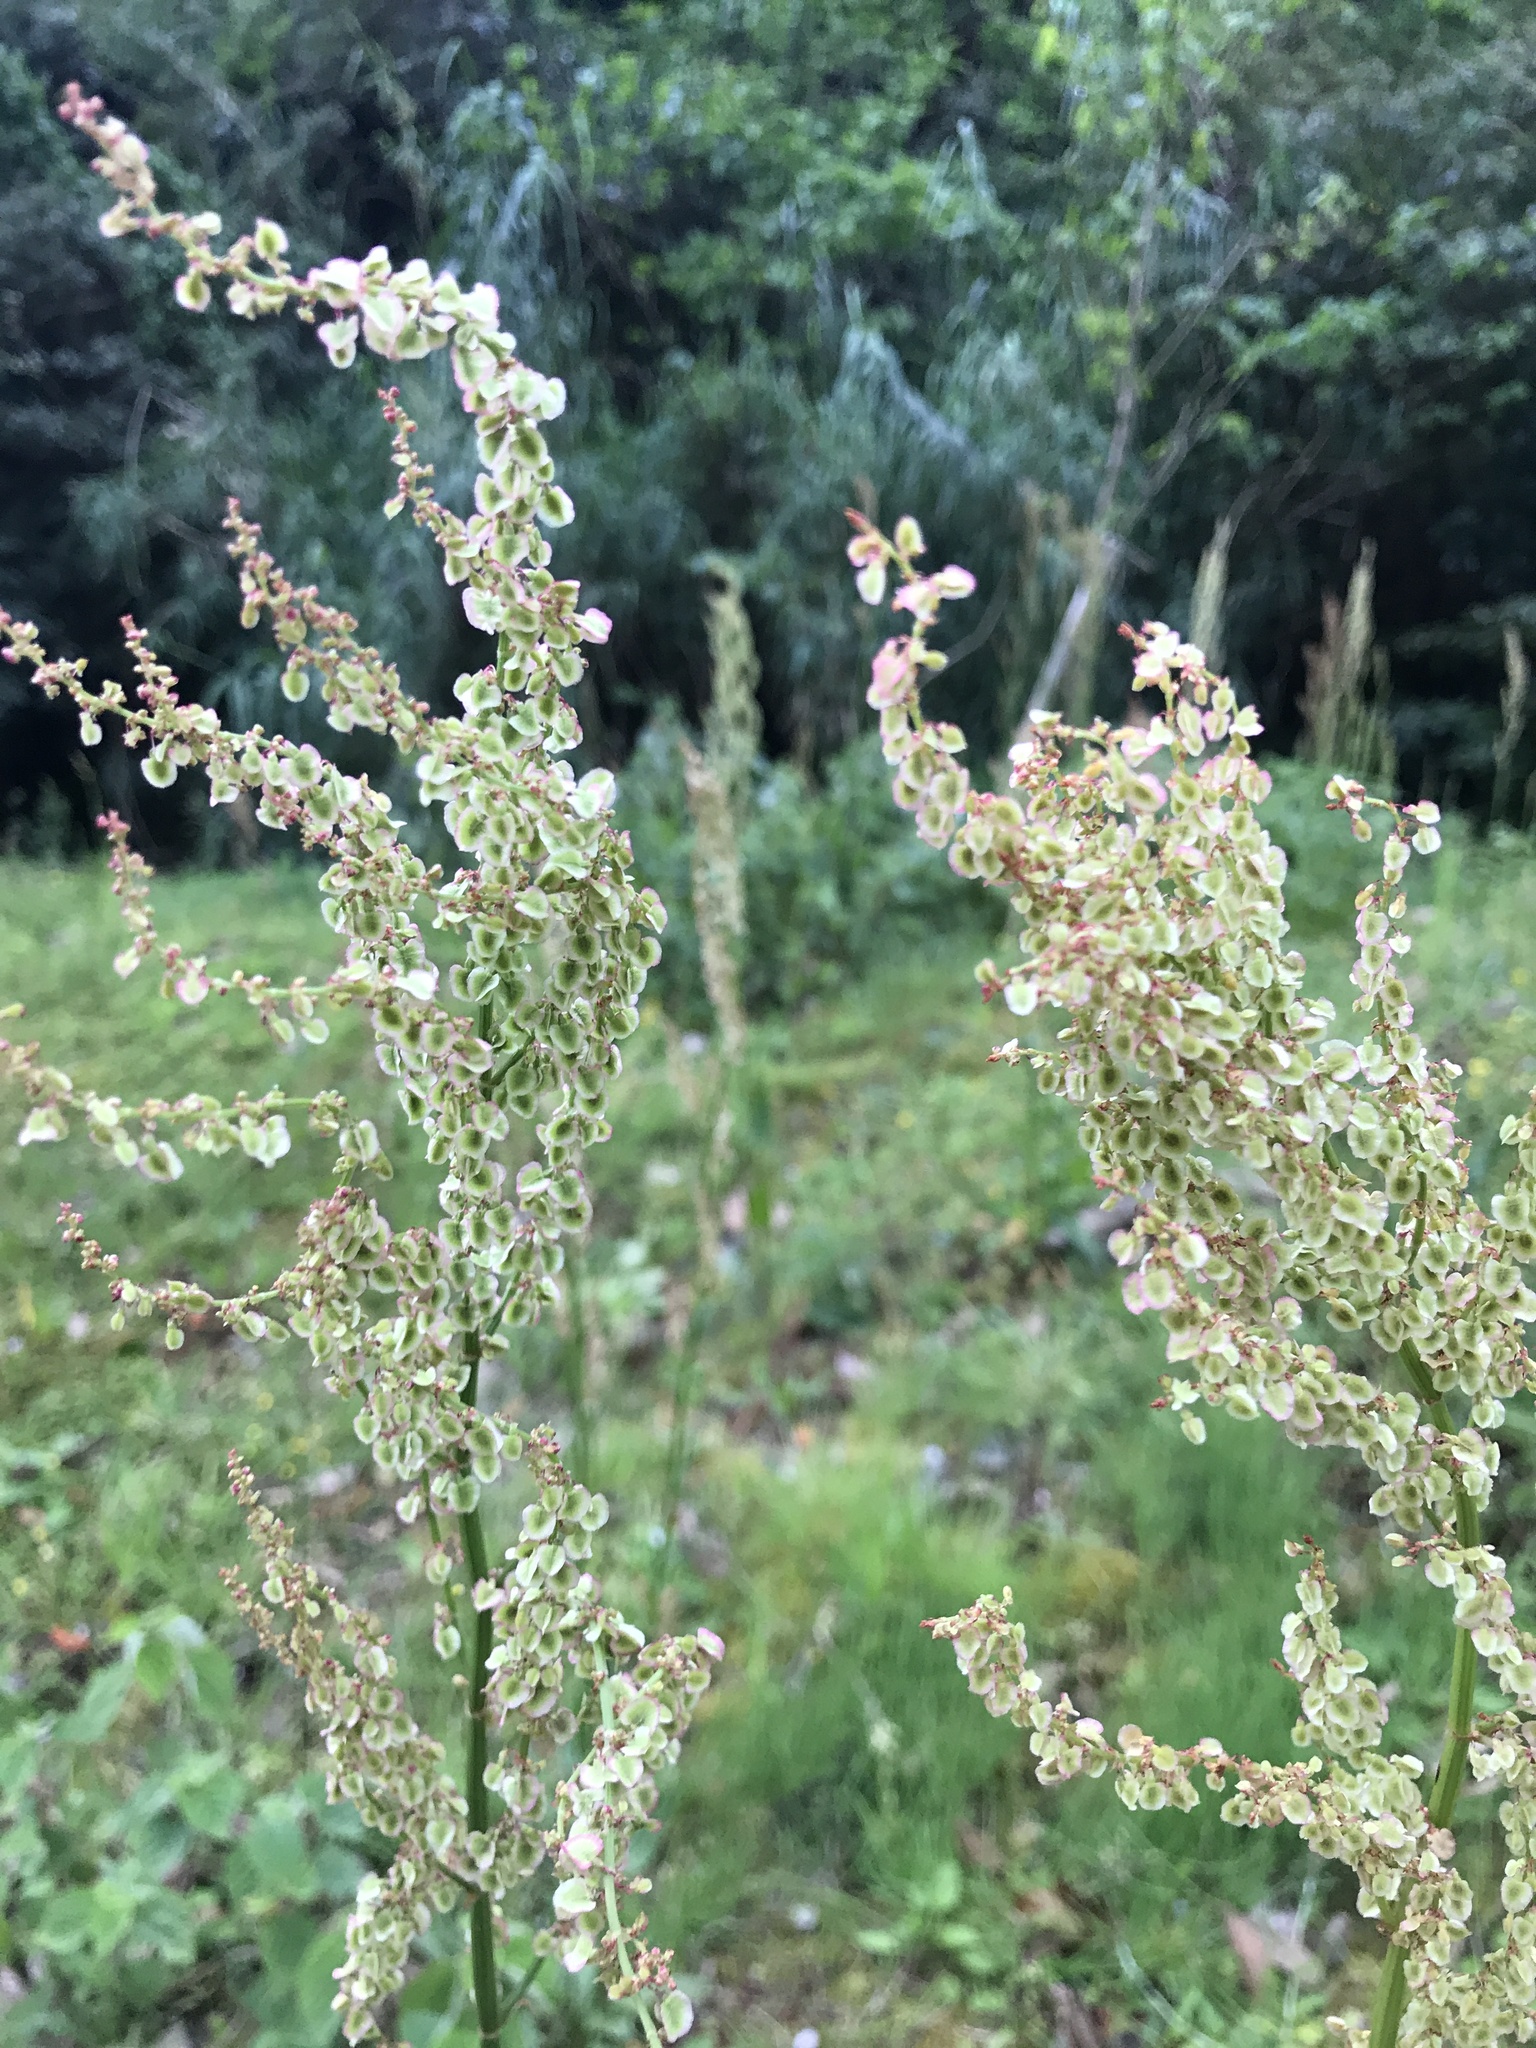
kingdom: Plantae
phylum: Tracheophyta
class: Magnoliopsida
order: Caryophyllales
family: Polygonaceae
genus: Rumex
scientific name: Rumex acetosa
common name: Garden sorrel
